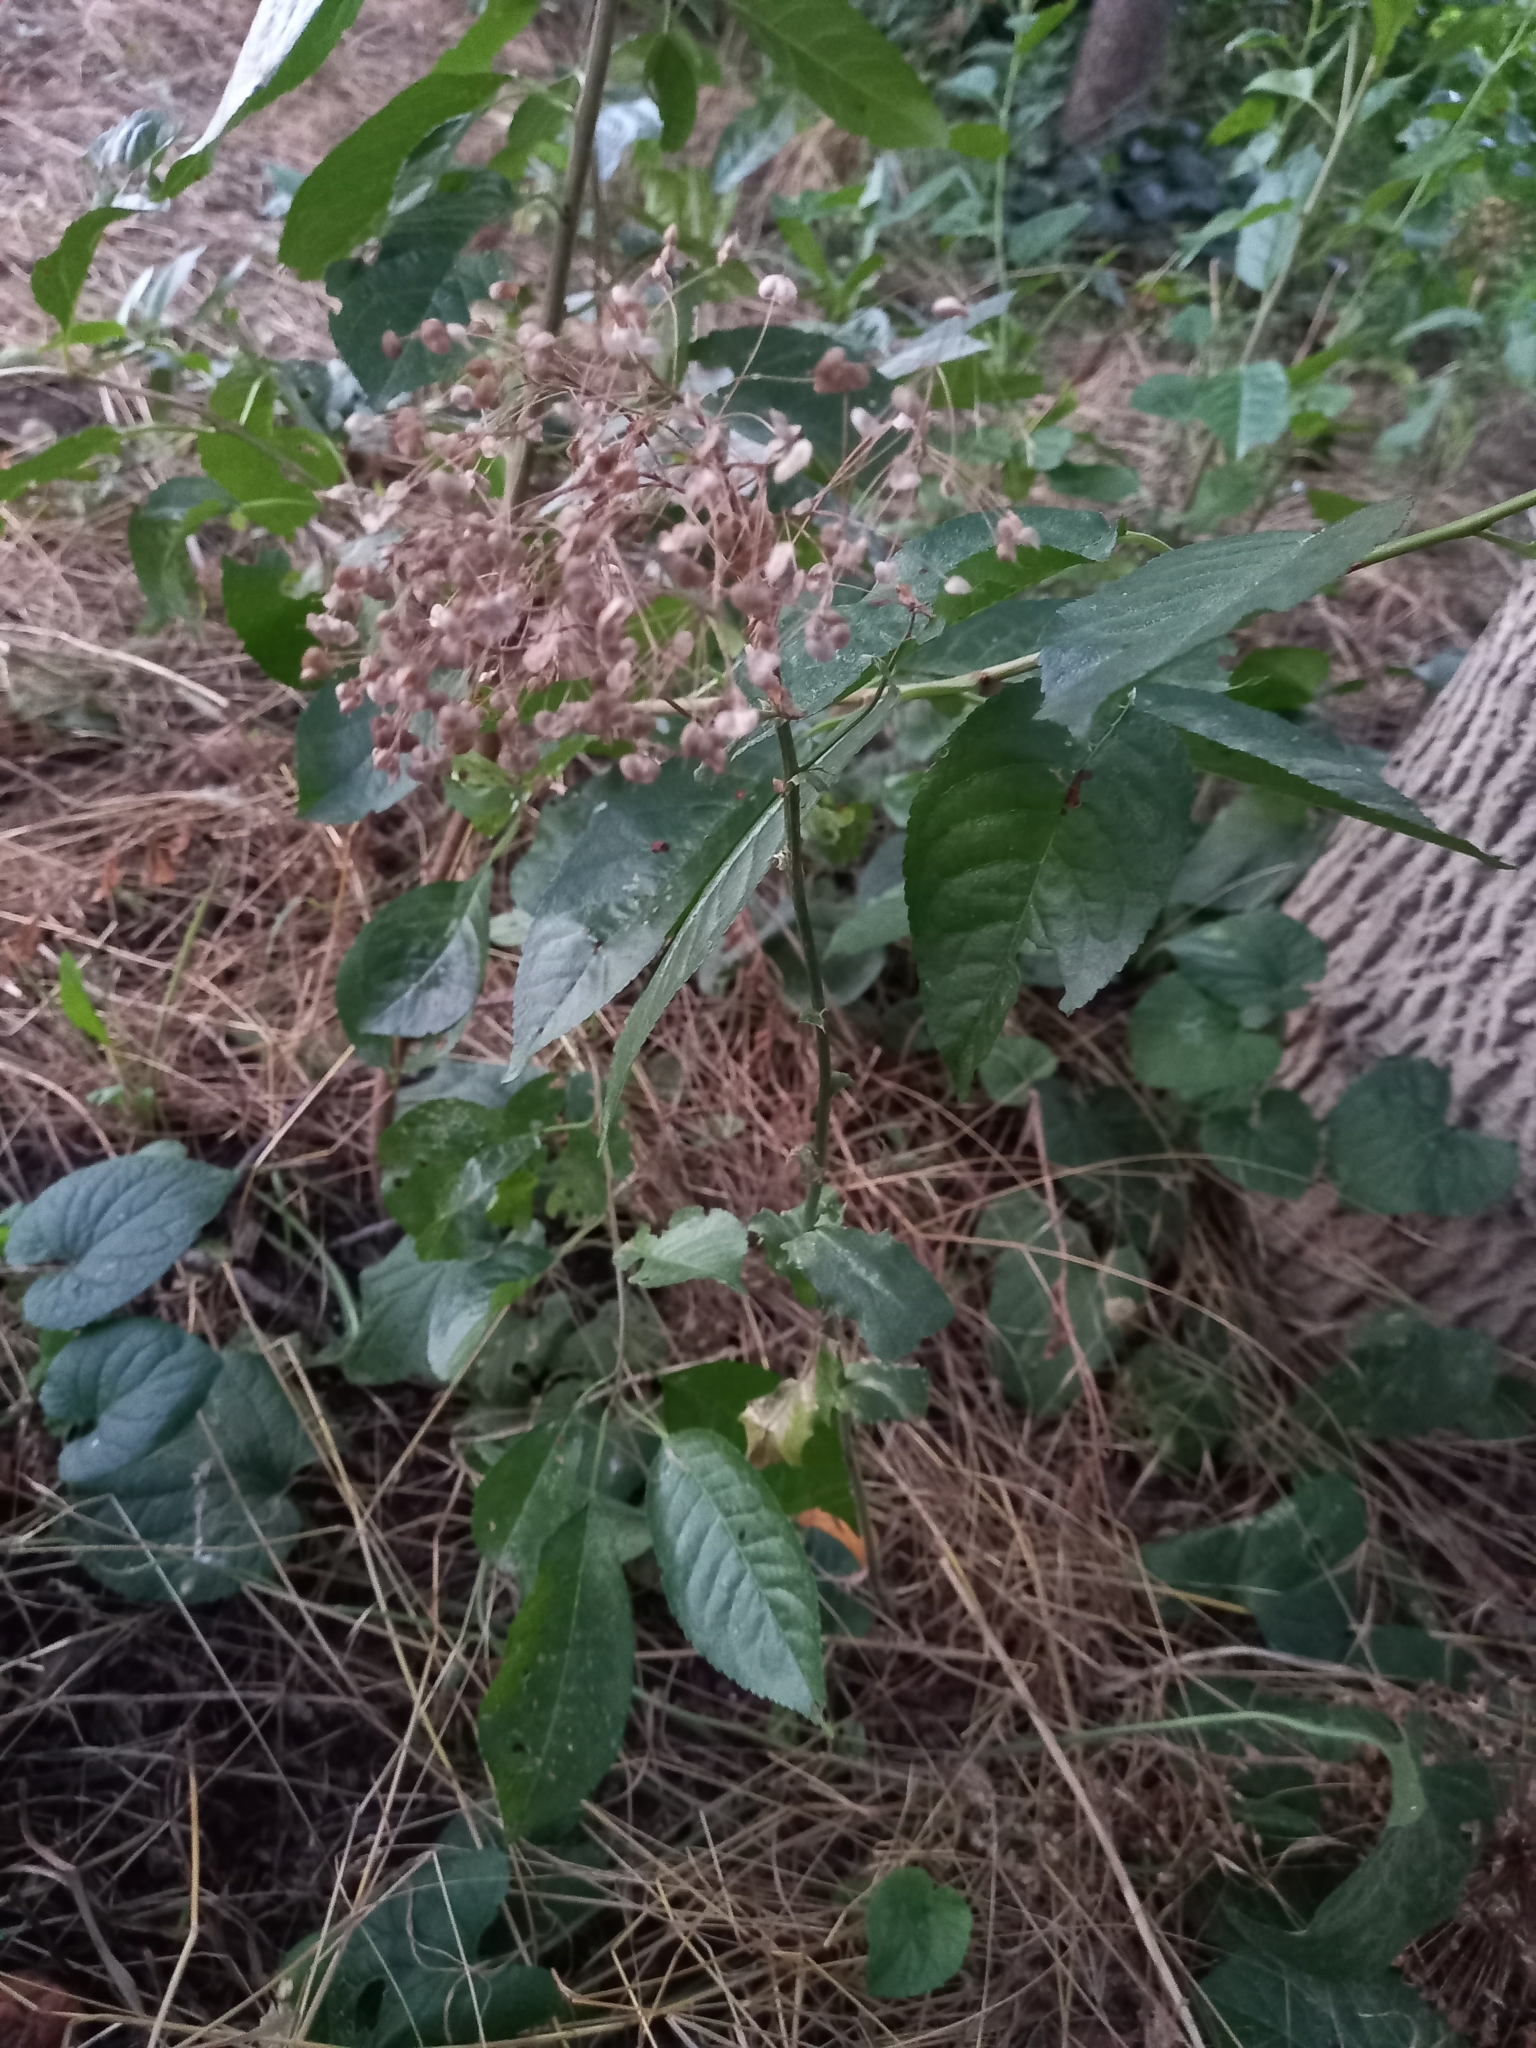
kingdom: Plantae
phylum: Tracheophyta
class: Magnoliopsida
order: Brassicales
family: Brassicaceae
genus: Lepidium
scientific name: Lepidium draba
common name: Hoary cress
